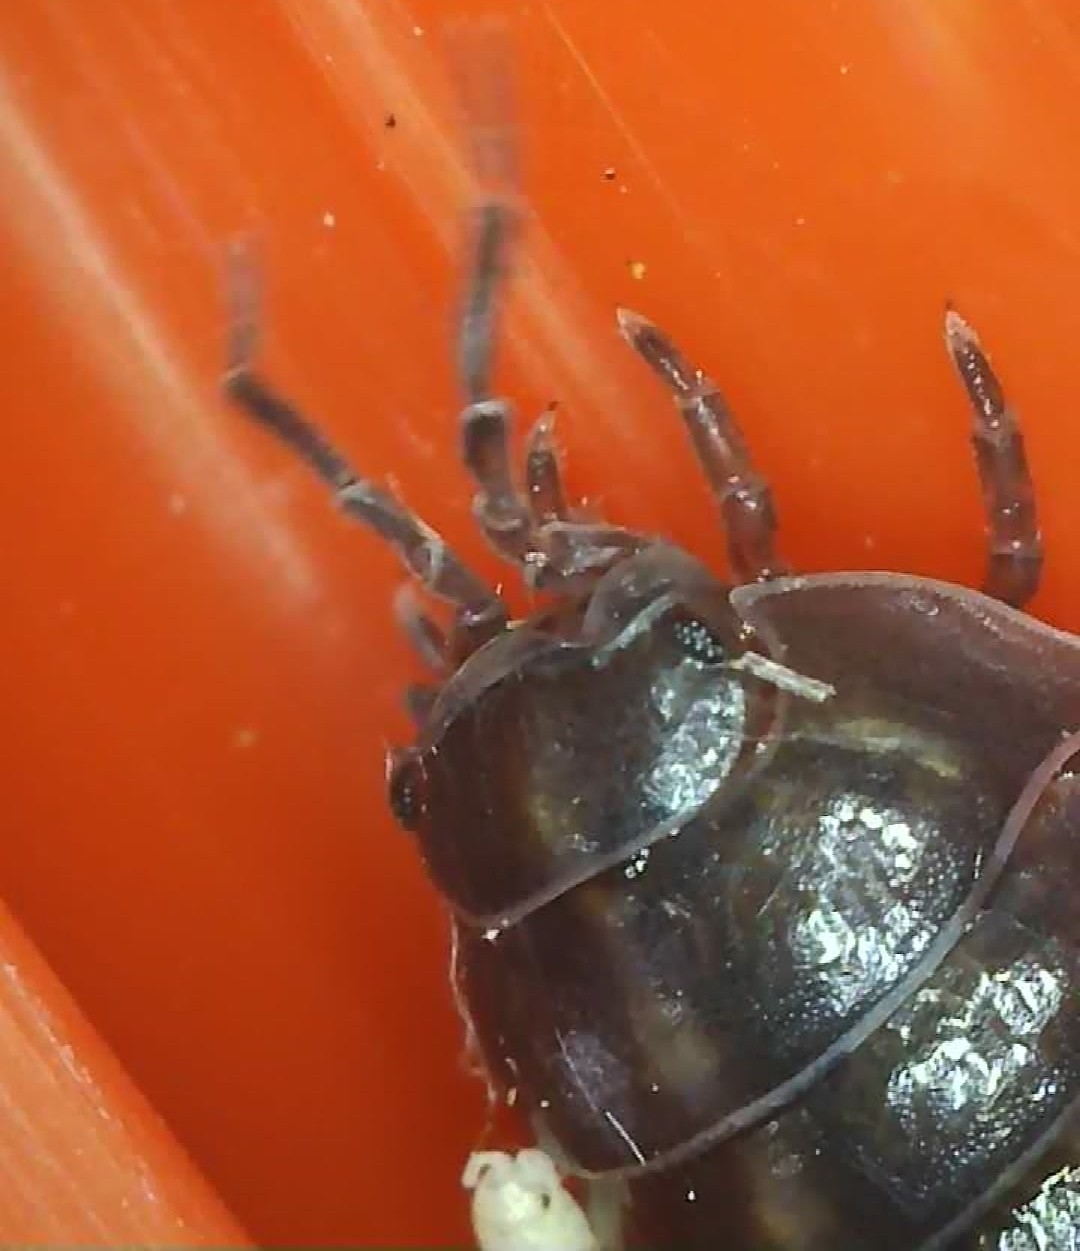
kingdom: Animalia
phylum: Arthropoda
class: Malacostraca
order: Isopoda
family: Armadillidiidae
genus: Armadillidium
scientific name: Armadillidium vulgare
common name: Common pill woodlouse
